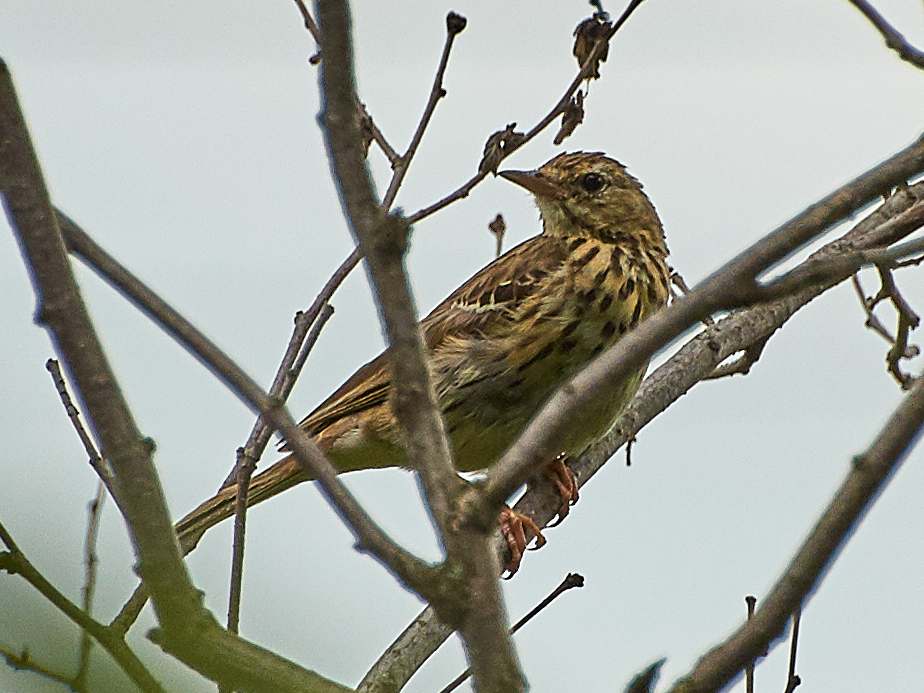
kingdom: Animalia
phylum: Chordata
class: Aves
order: Passeriformes
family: Motacillidae
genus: Anthus
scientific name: Anthus trivialis
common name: Tree pipit
